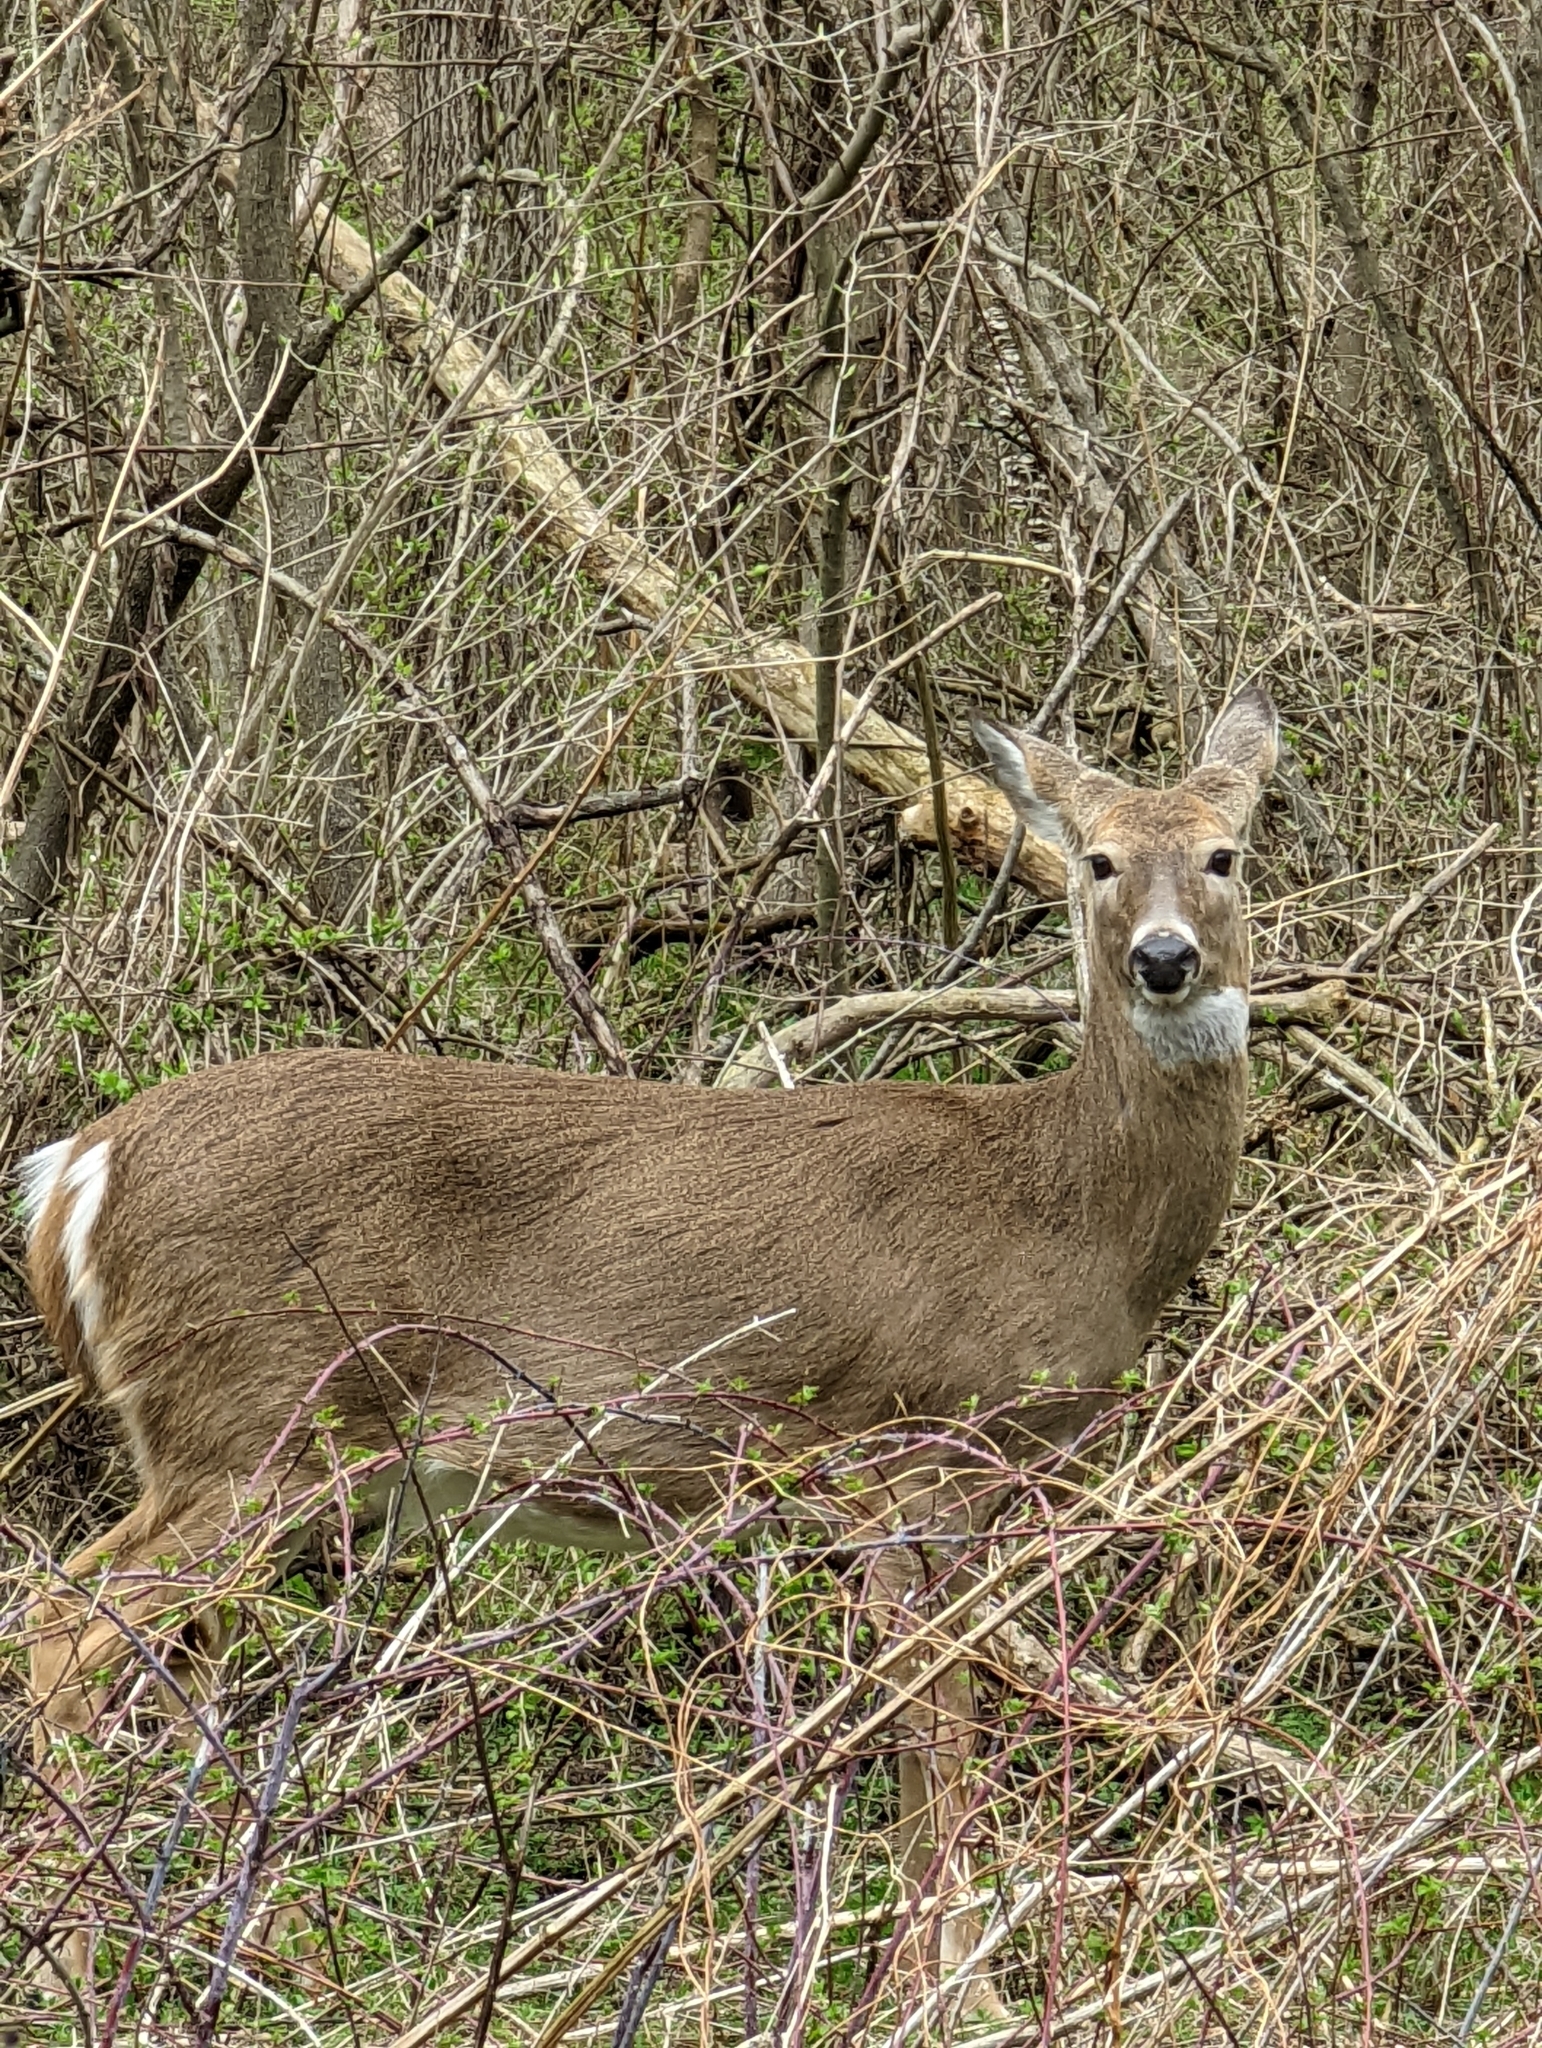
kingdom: Animalia
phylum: Chordata
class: Mammalia
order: Artiodactyla
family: Cervidae
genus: Odocoileus
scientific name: Odocoileus virginianus
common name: White-tailed deer
